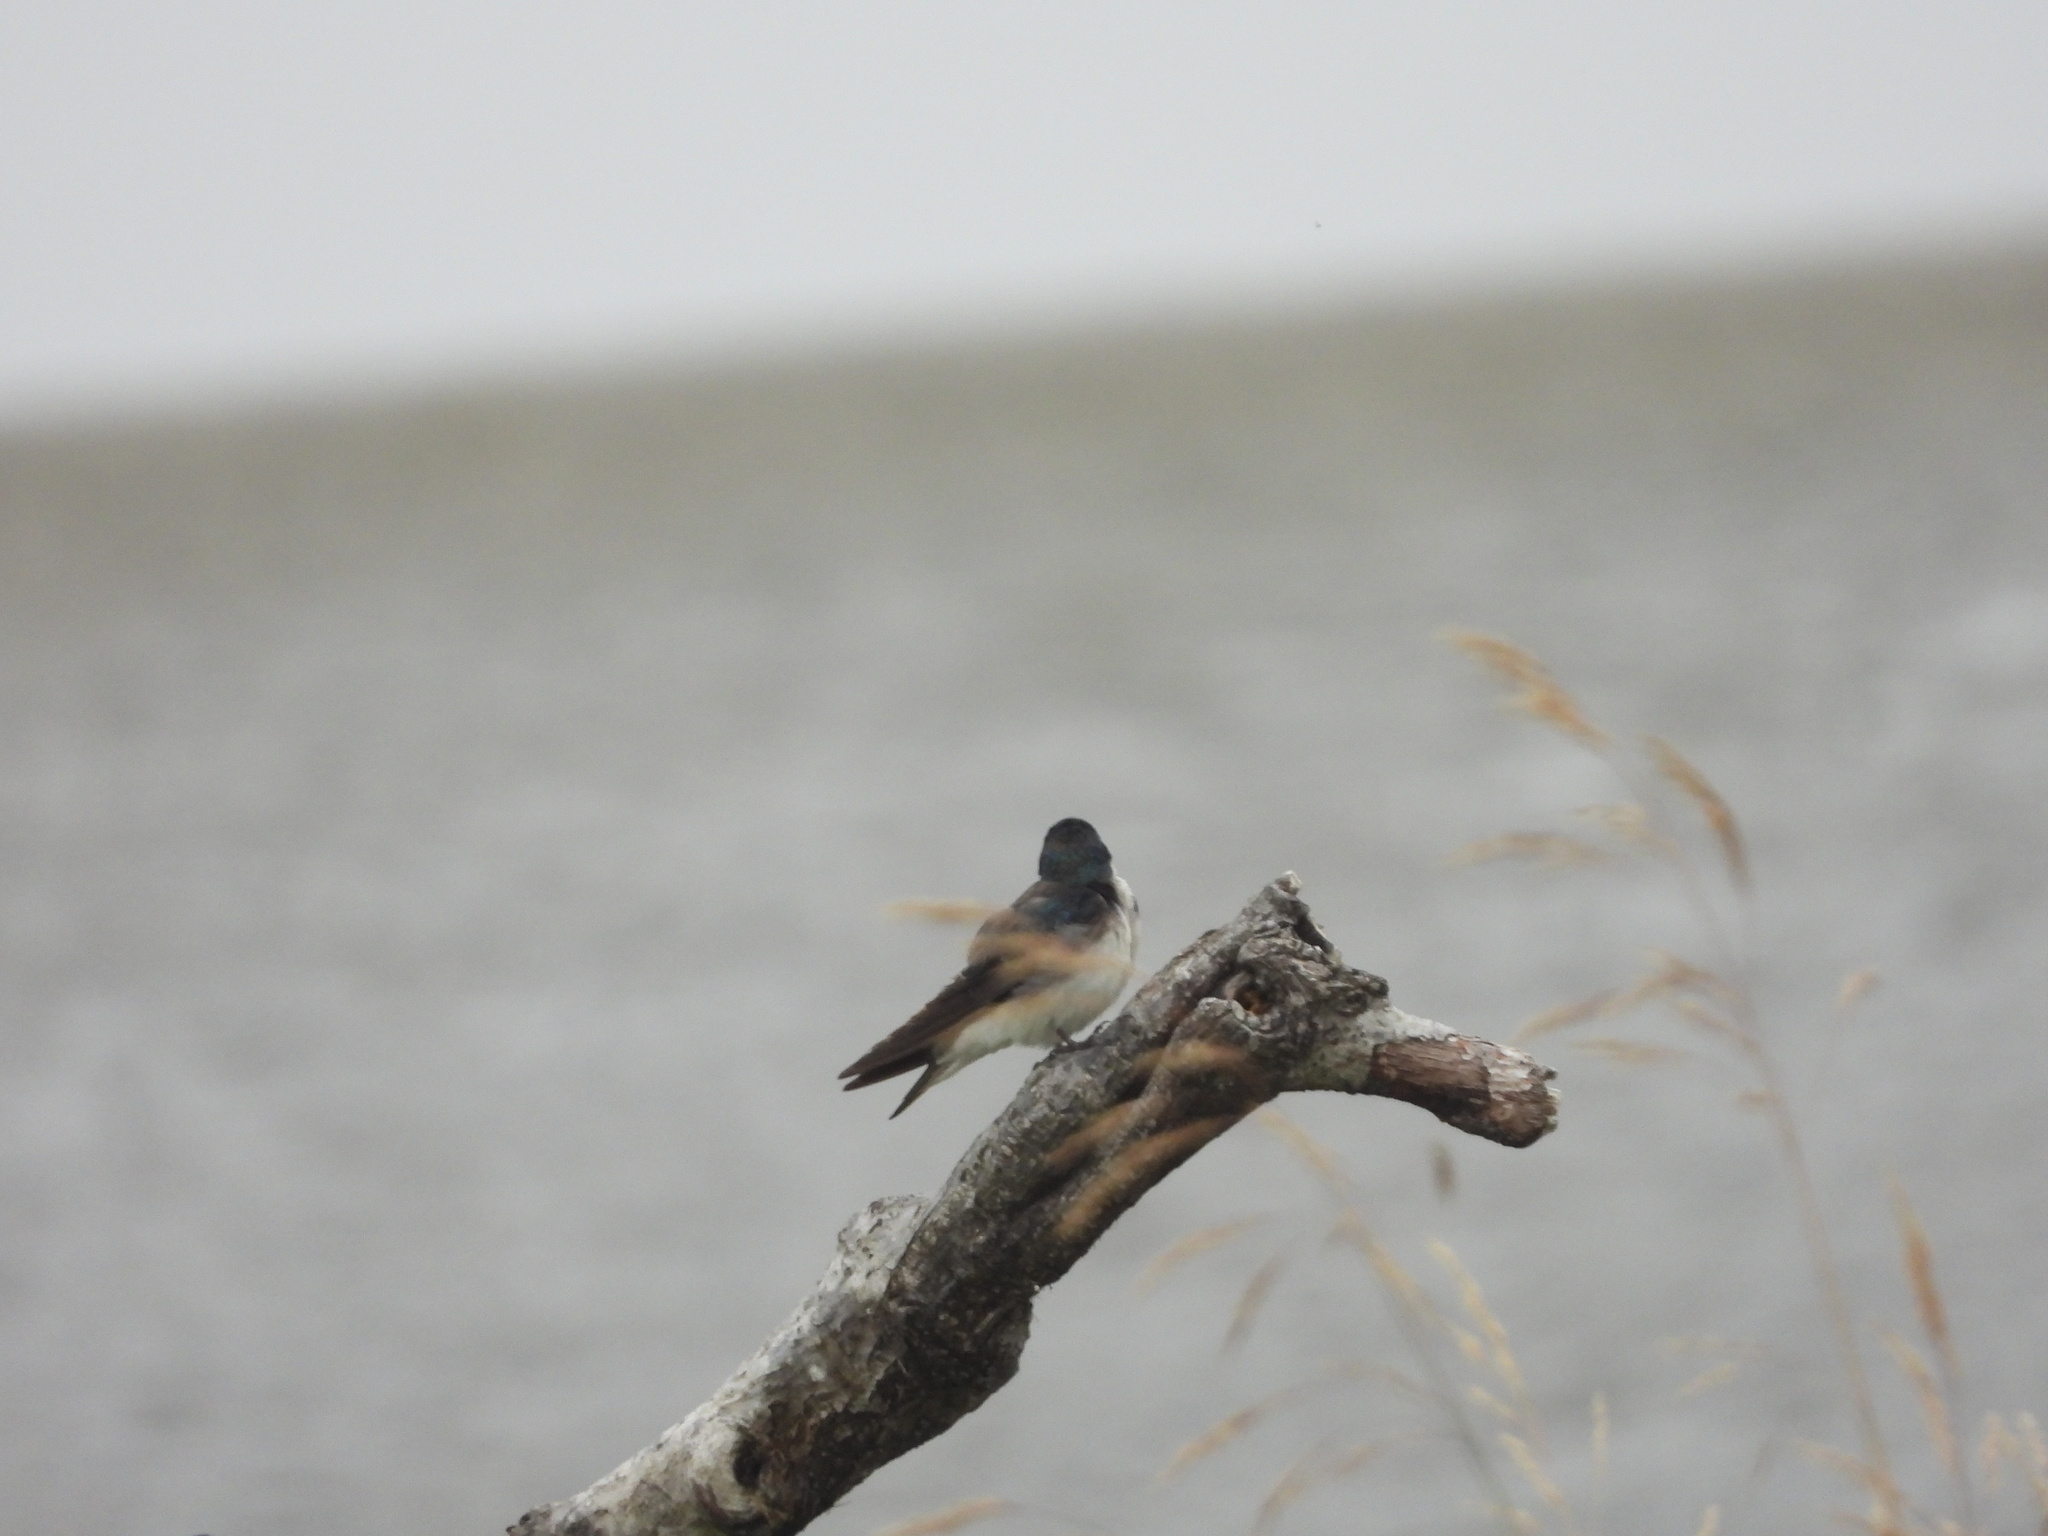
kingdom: Animalia
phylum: Chordata
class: Aves
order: Passeriformes
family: Hirundinidae
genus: Tachycineta
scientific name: Tachycineta bicolor
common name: Tree swallow
